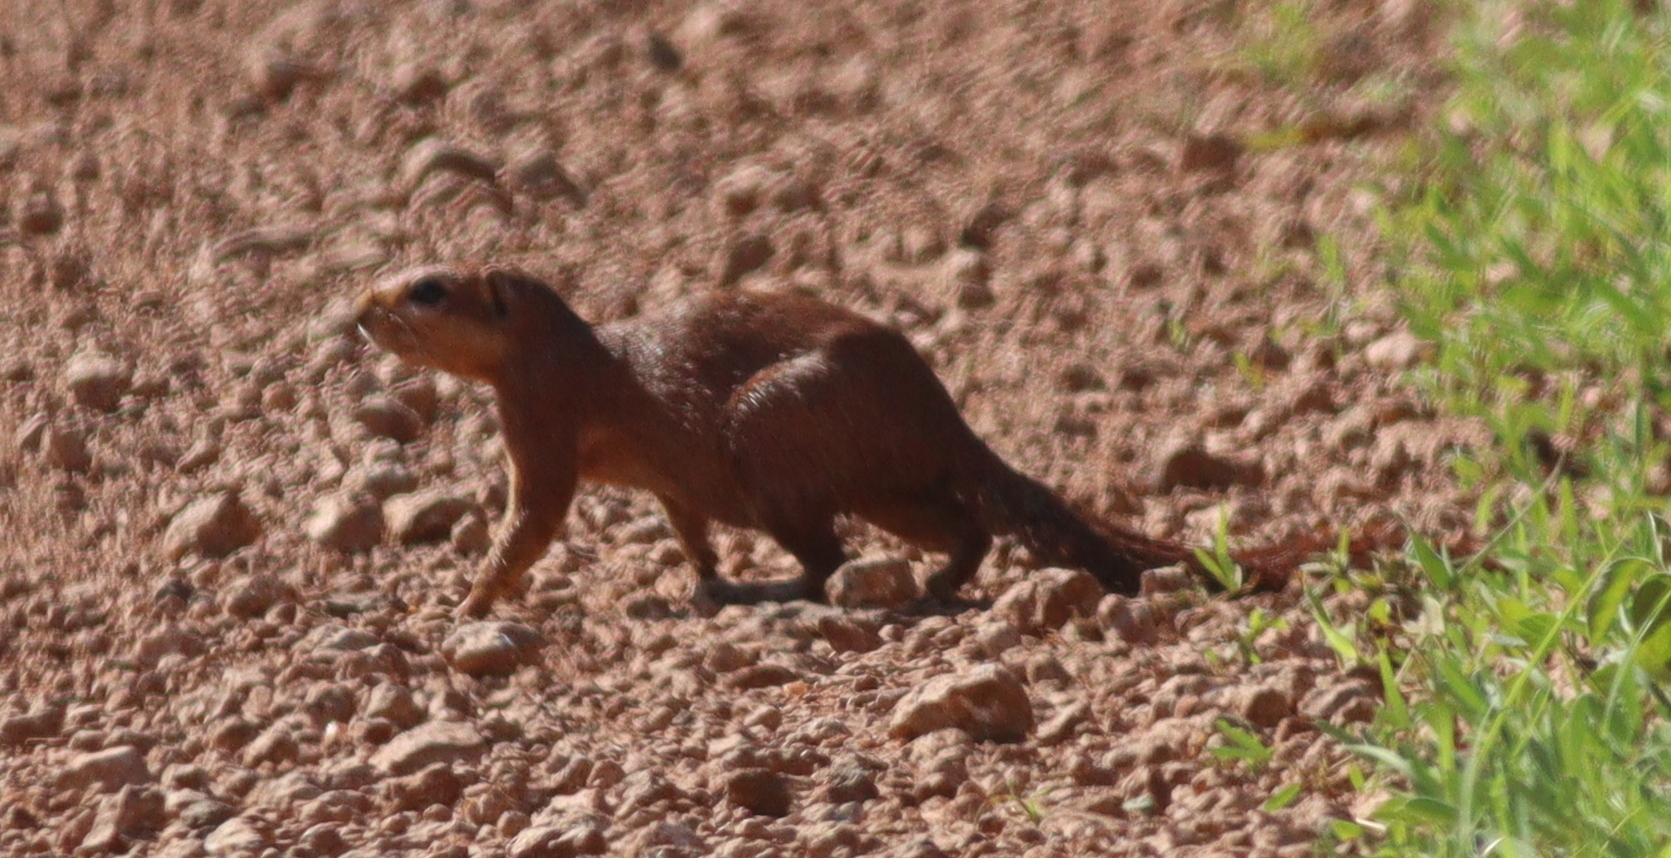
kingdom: Animalia
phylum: Chordata
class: Mammalia
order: Rodentia
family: Sciuridae
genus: Xerus
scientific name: Xerus rutilus
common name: Unstriped ground squirrel
